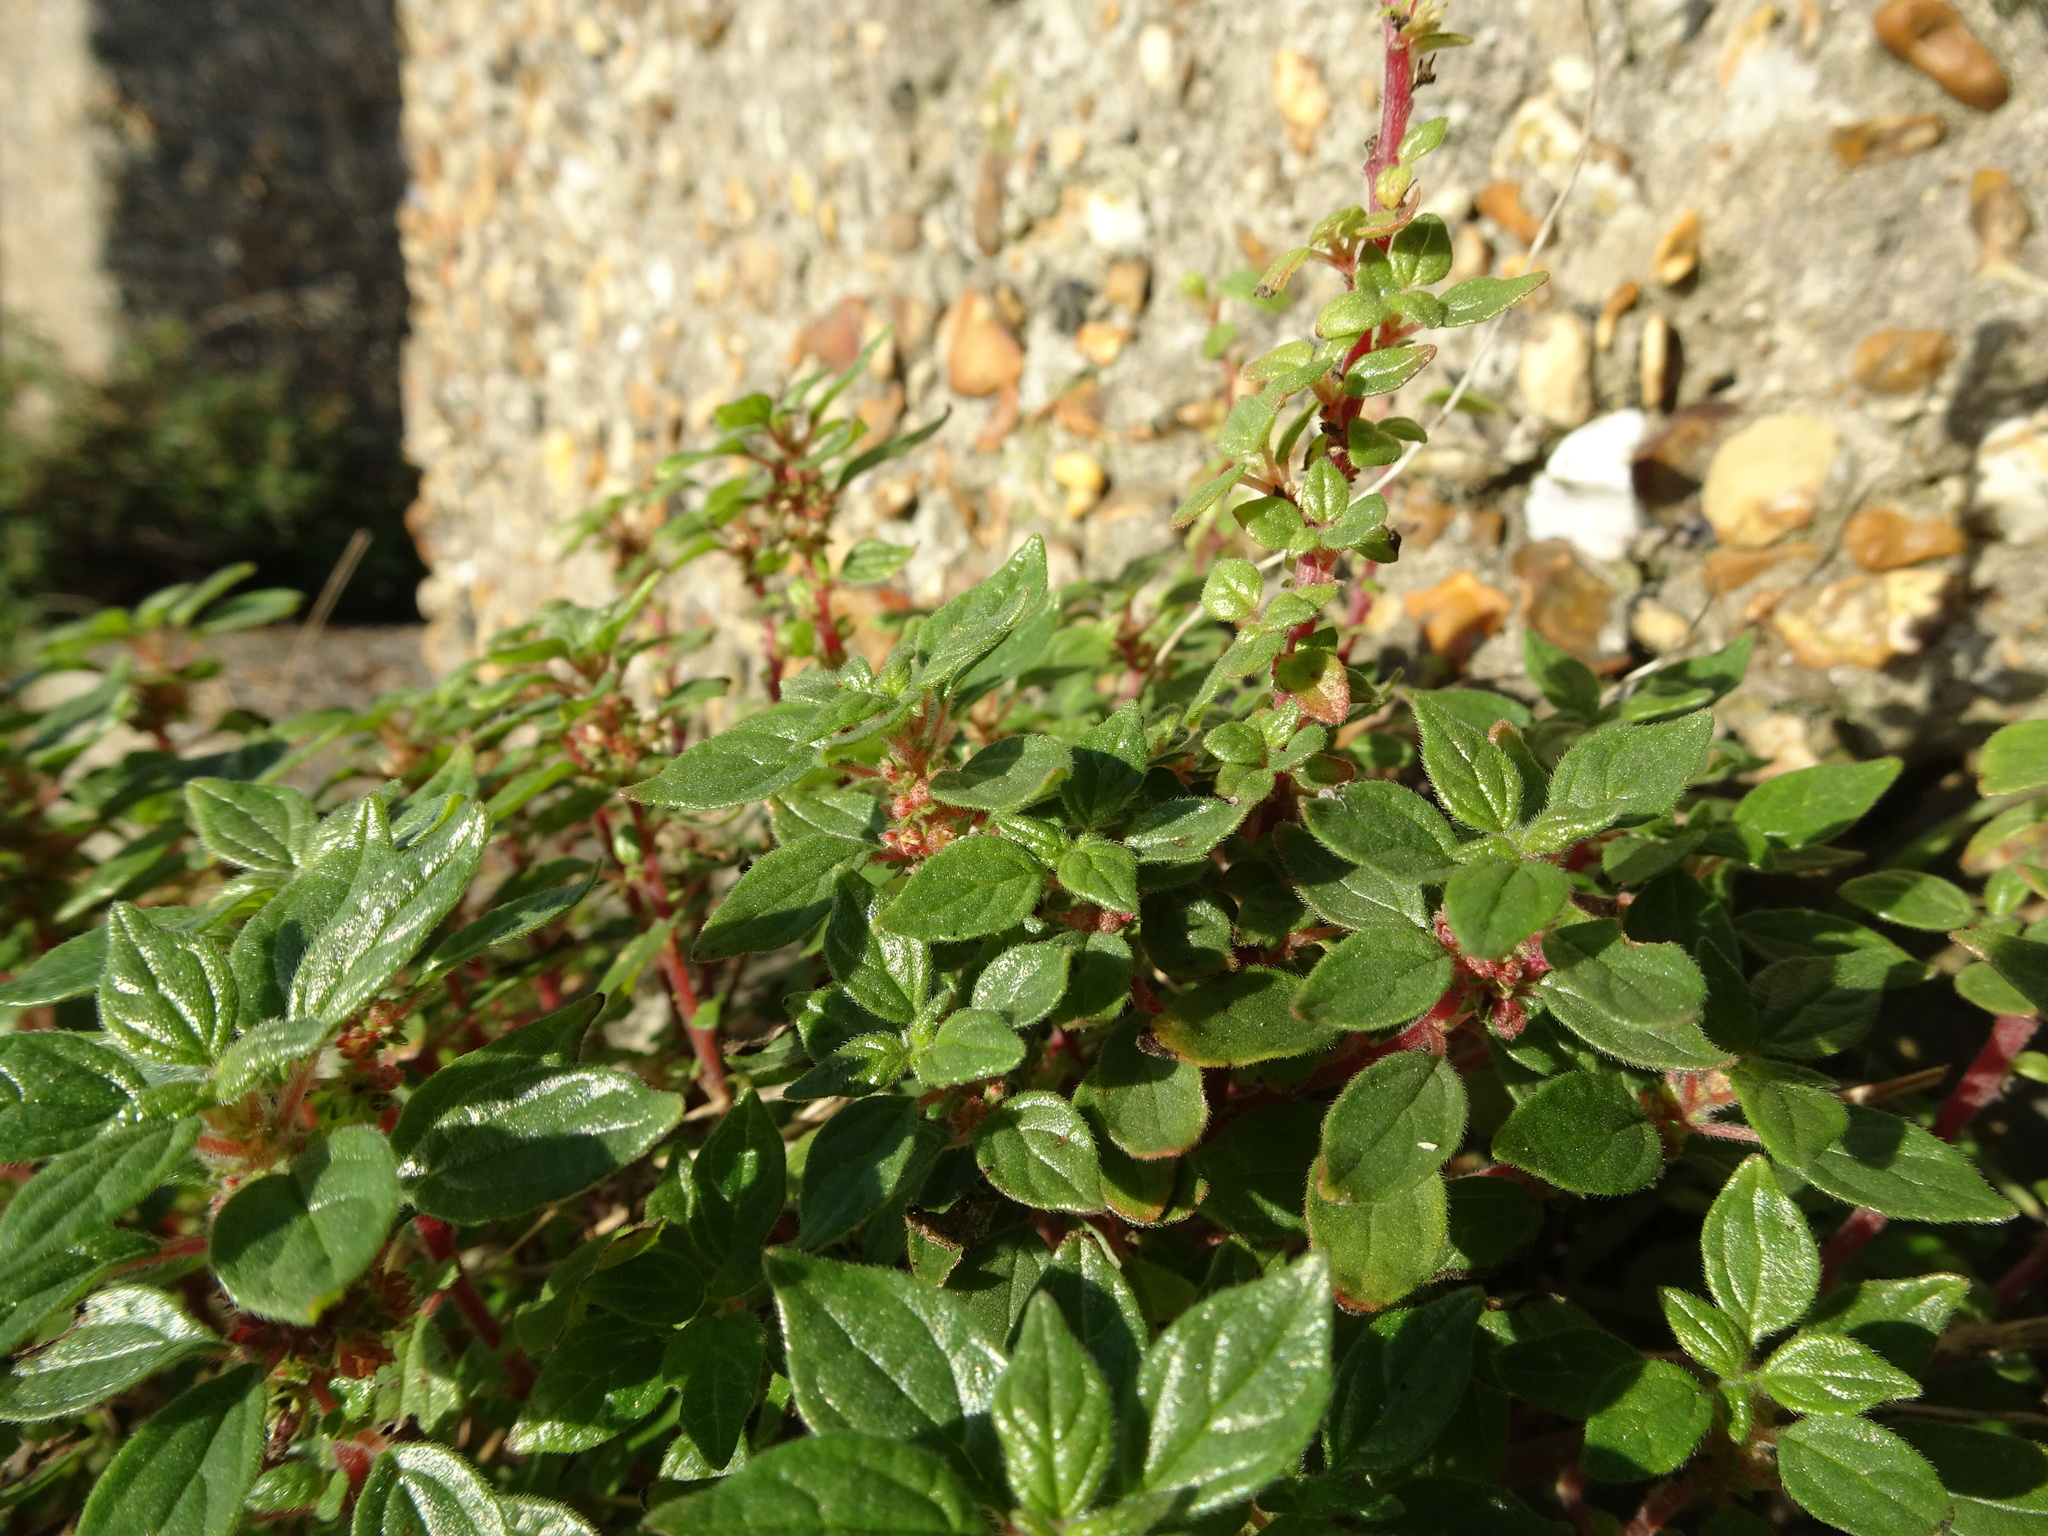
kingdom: Plantae
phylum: Tracheophyta
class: Magnoliopsida
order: Rosales
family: Urticaceae
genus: Parietaria
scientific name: Parietaria judaica
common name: Pellitory-of-the-wall
